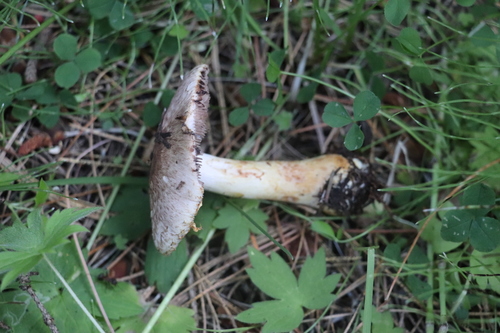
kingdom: Fungi
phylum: Basidiomycota
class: Agaricomycetes
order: Agaricales
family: Agaricaceae
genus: Agaricus
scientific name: Agaricus semotus
